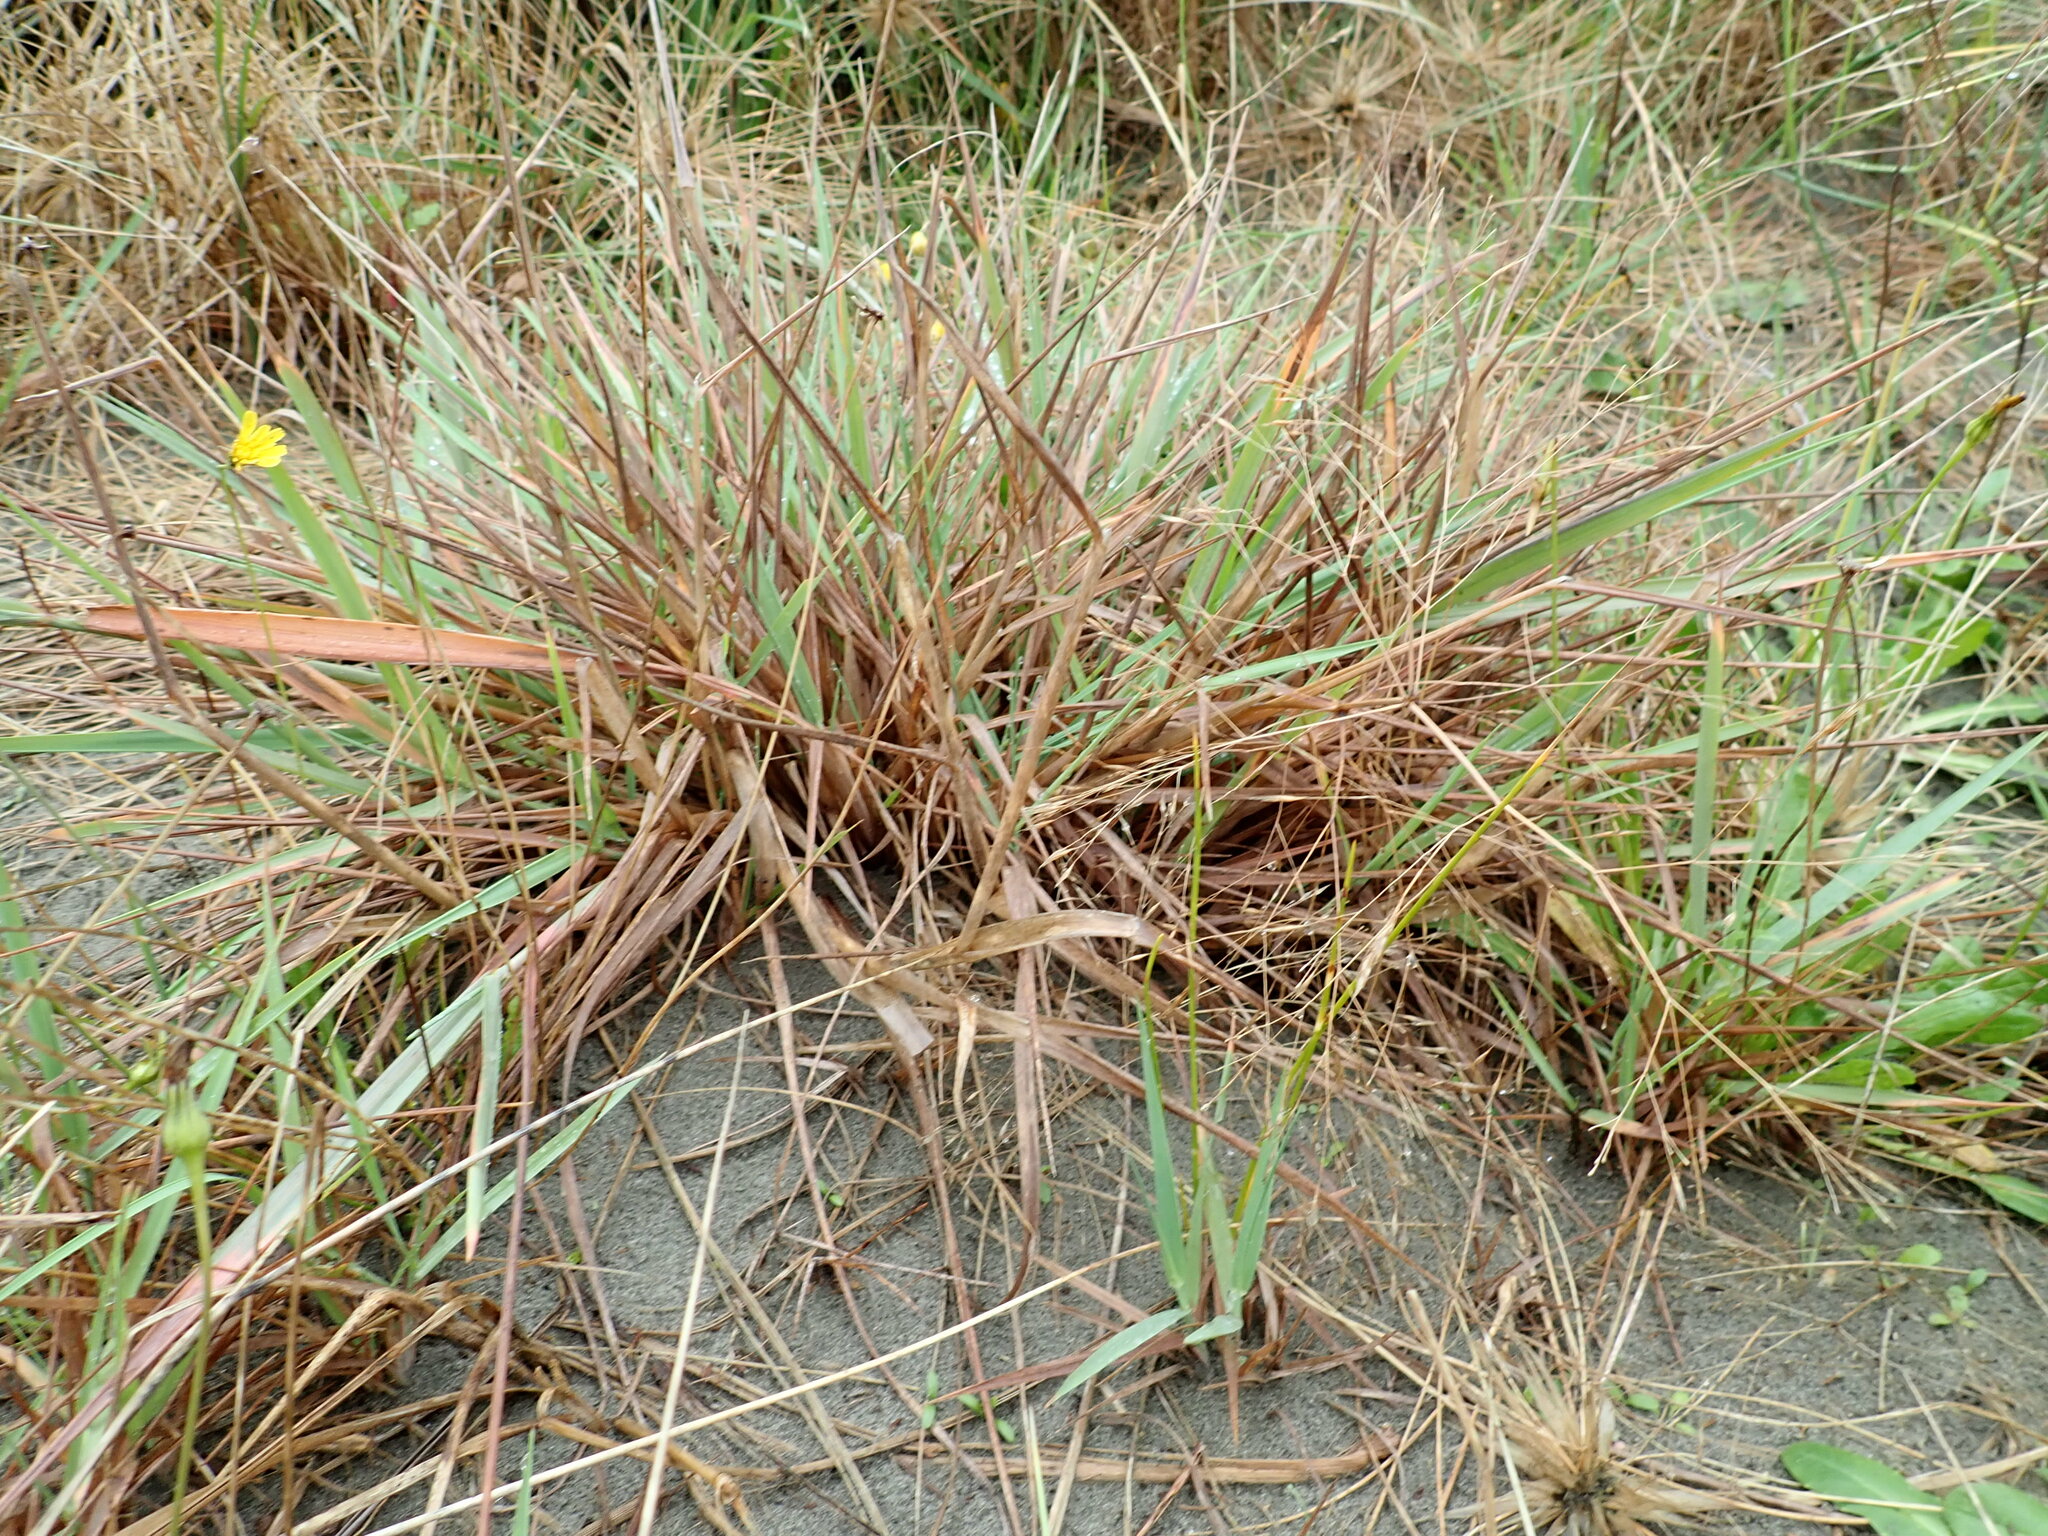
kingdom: Plantae
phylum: Tracheophyta
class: Liliopsida
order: Poales
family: Poaceae
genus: Lachnagrostis
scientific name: Lachnagrostis billardierei
